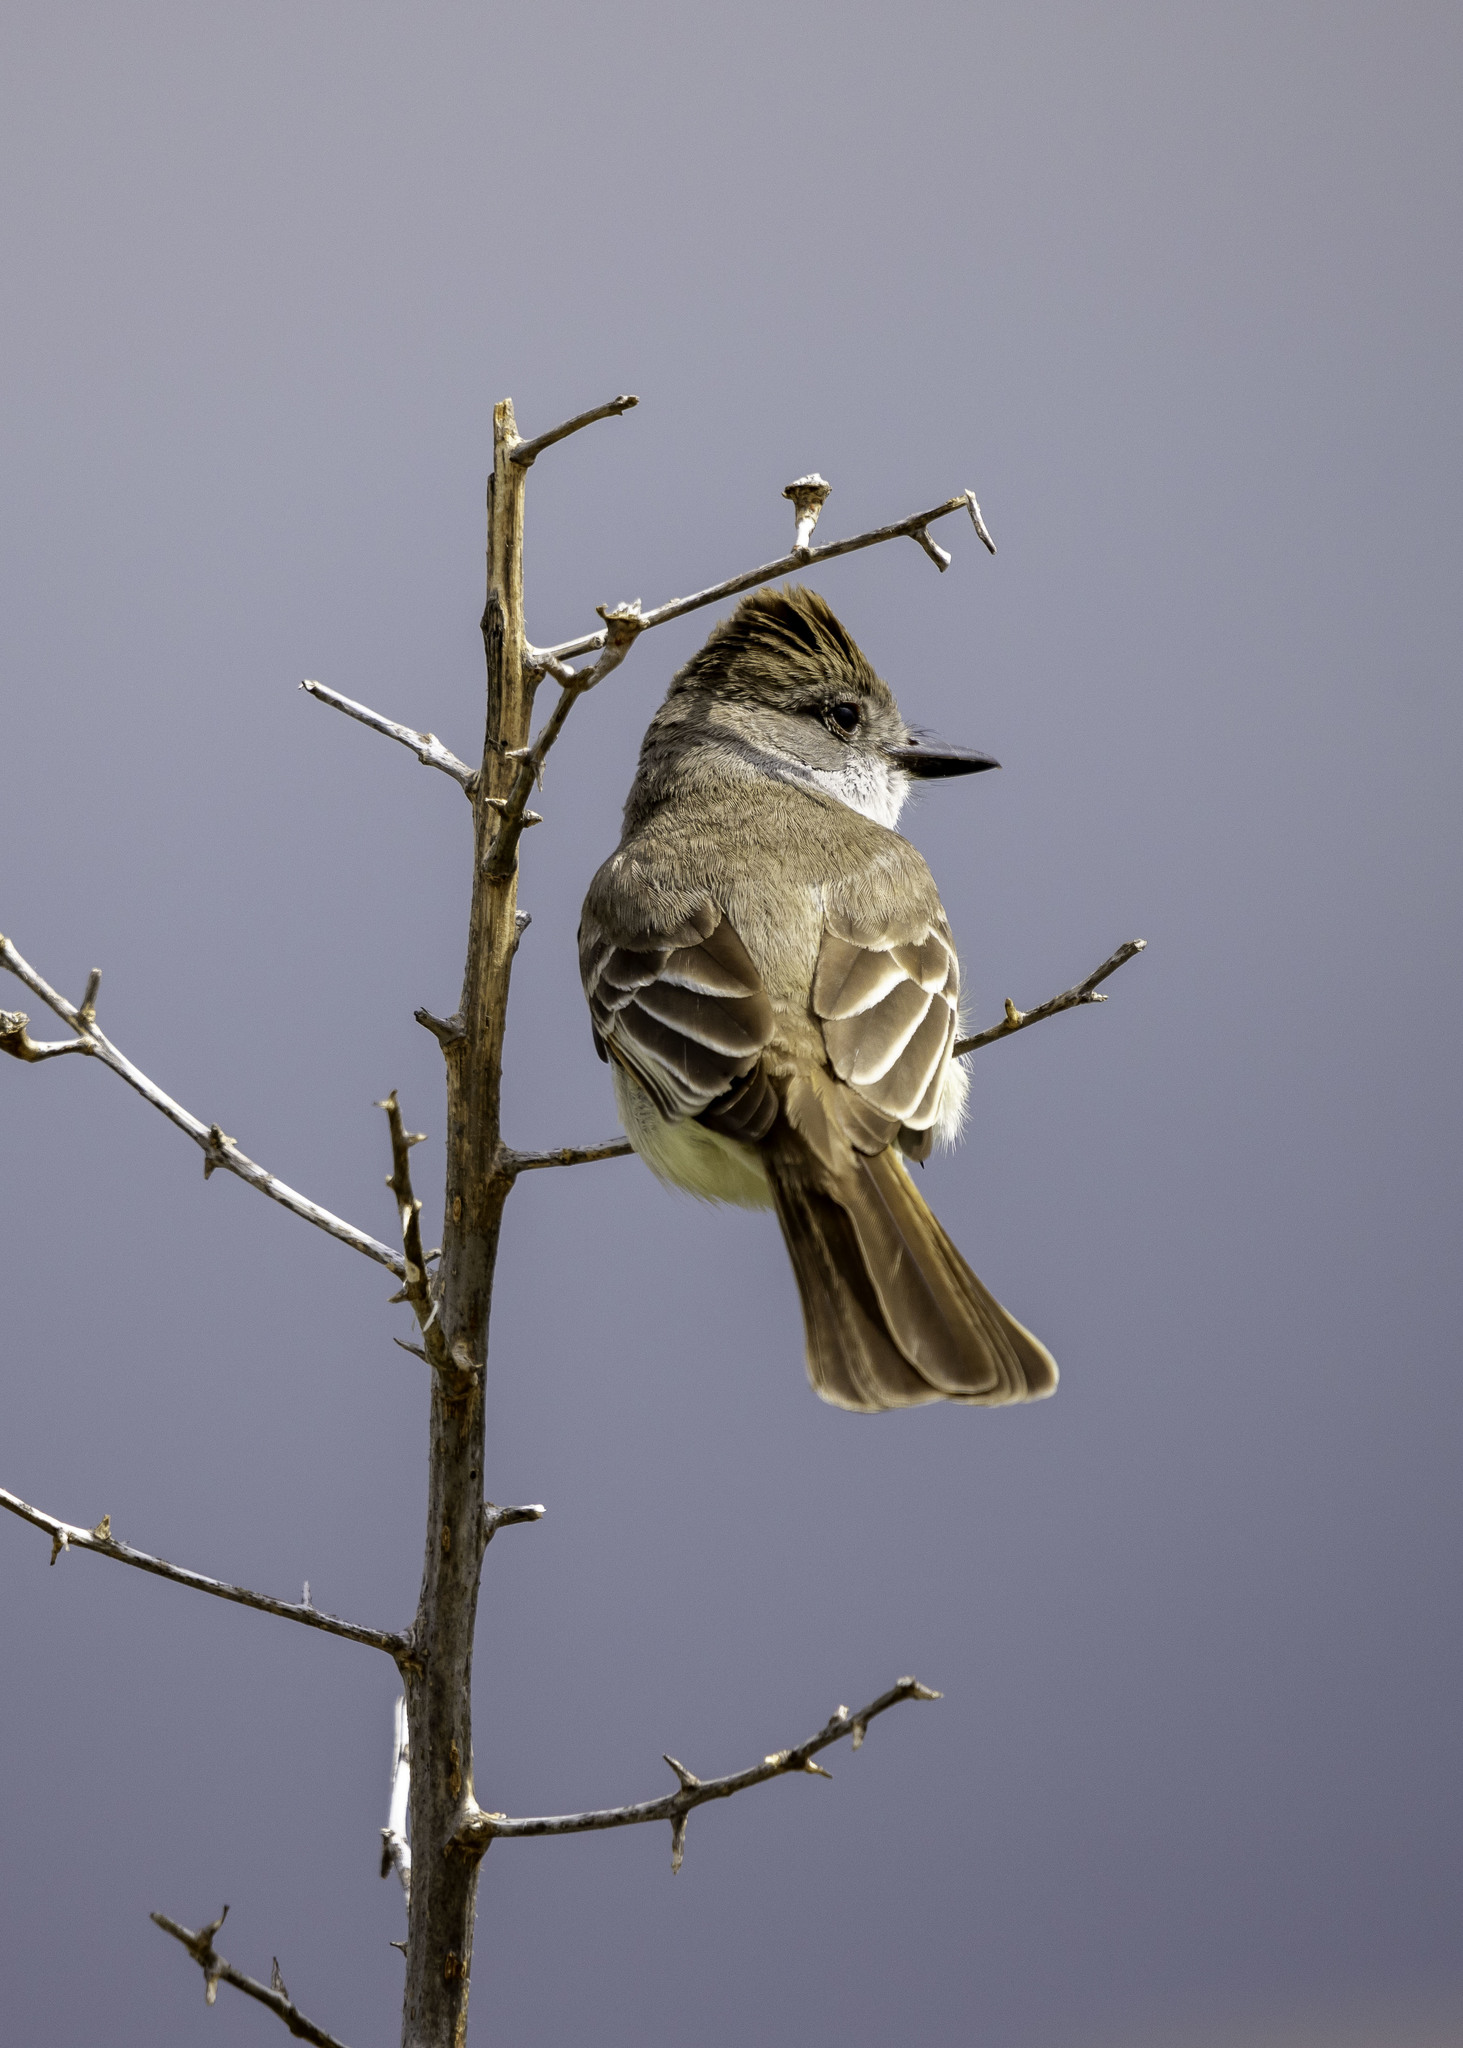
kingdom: Animalia
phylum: Chordata
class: Aves
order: Passeriformes
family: Tyrannidae
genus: Myiarchus
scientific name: Myiarchus cinerascens
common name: Ash-throated flycatcher
